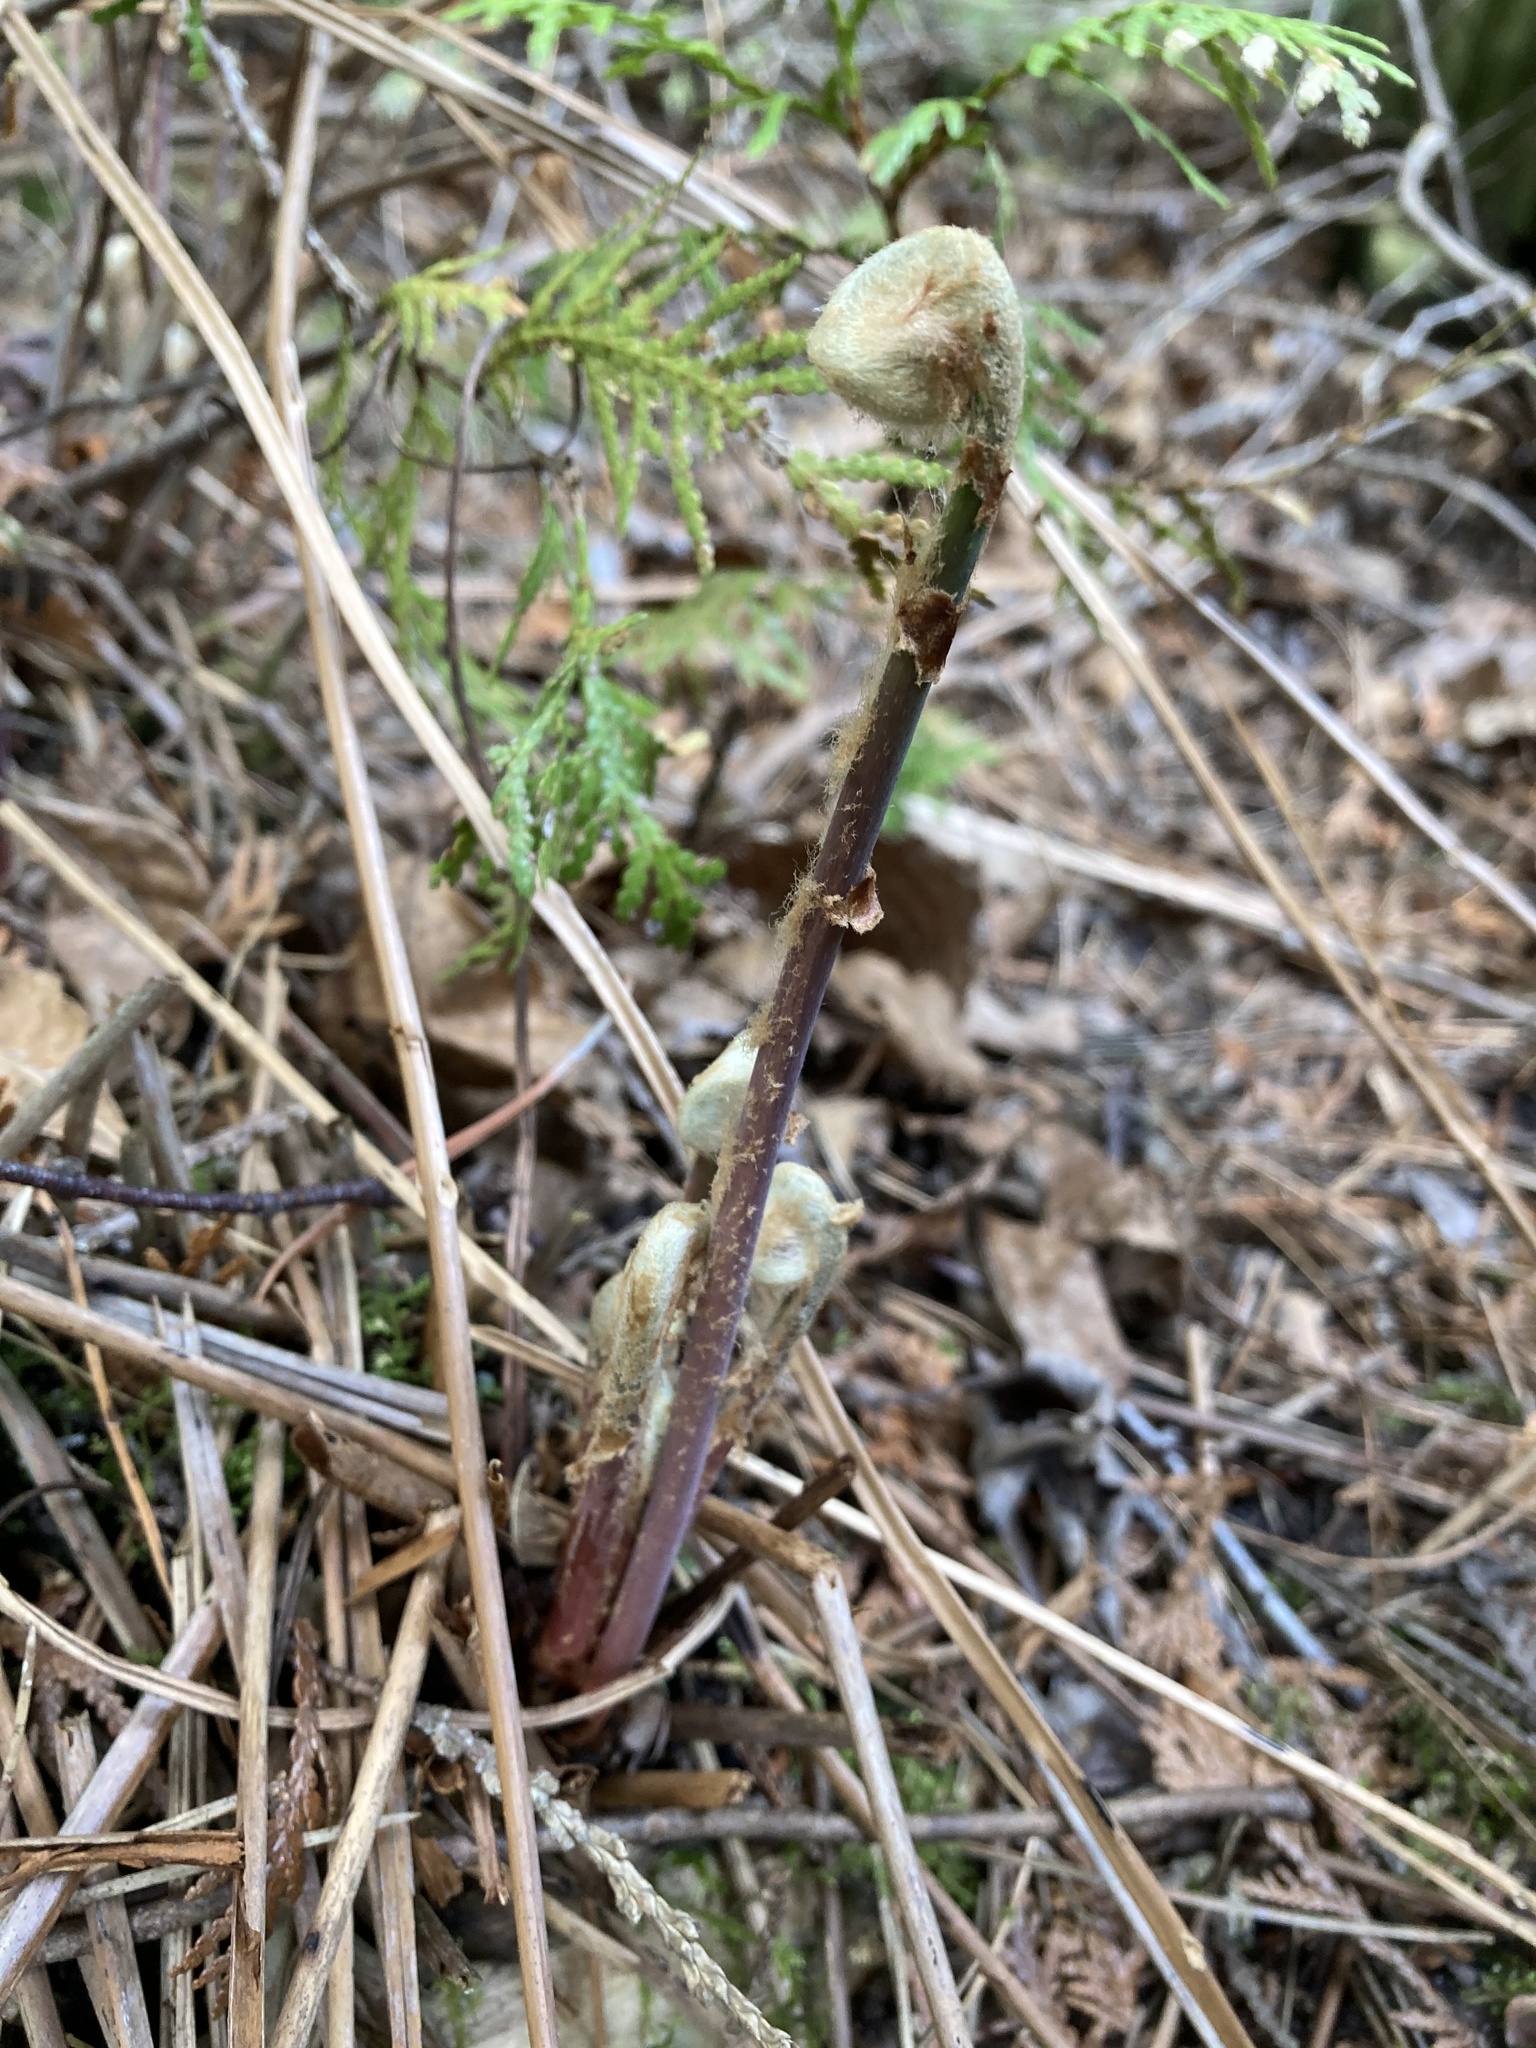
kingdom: Plantae
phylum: Tracheophyta
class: Polypodiopsida
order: Osmundales
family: Osmundaceae
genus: Osmunda
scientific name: Osmunda spectabilis
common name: American royal fern
